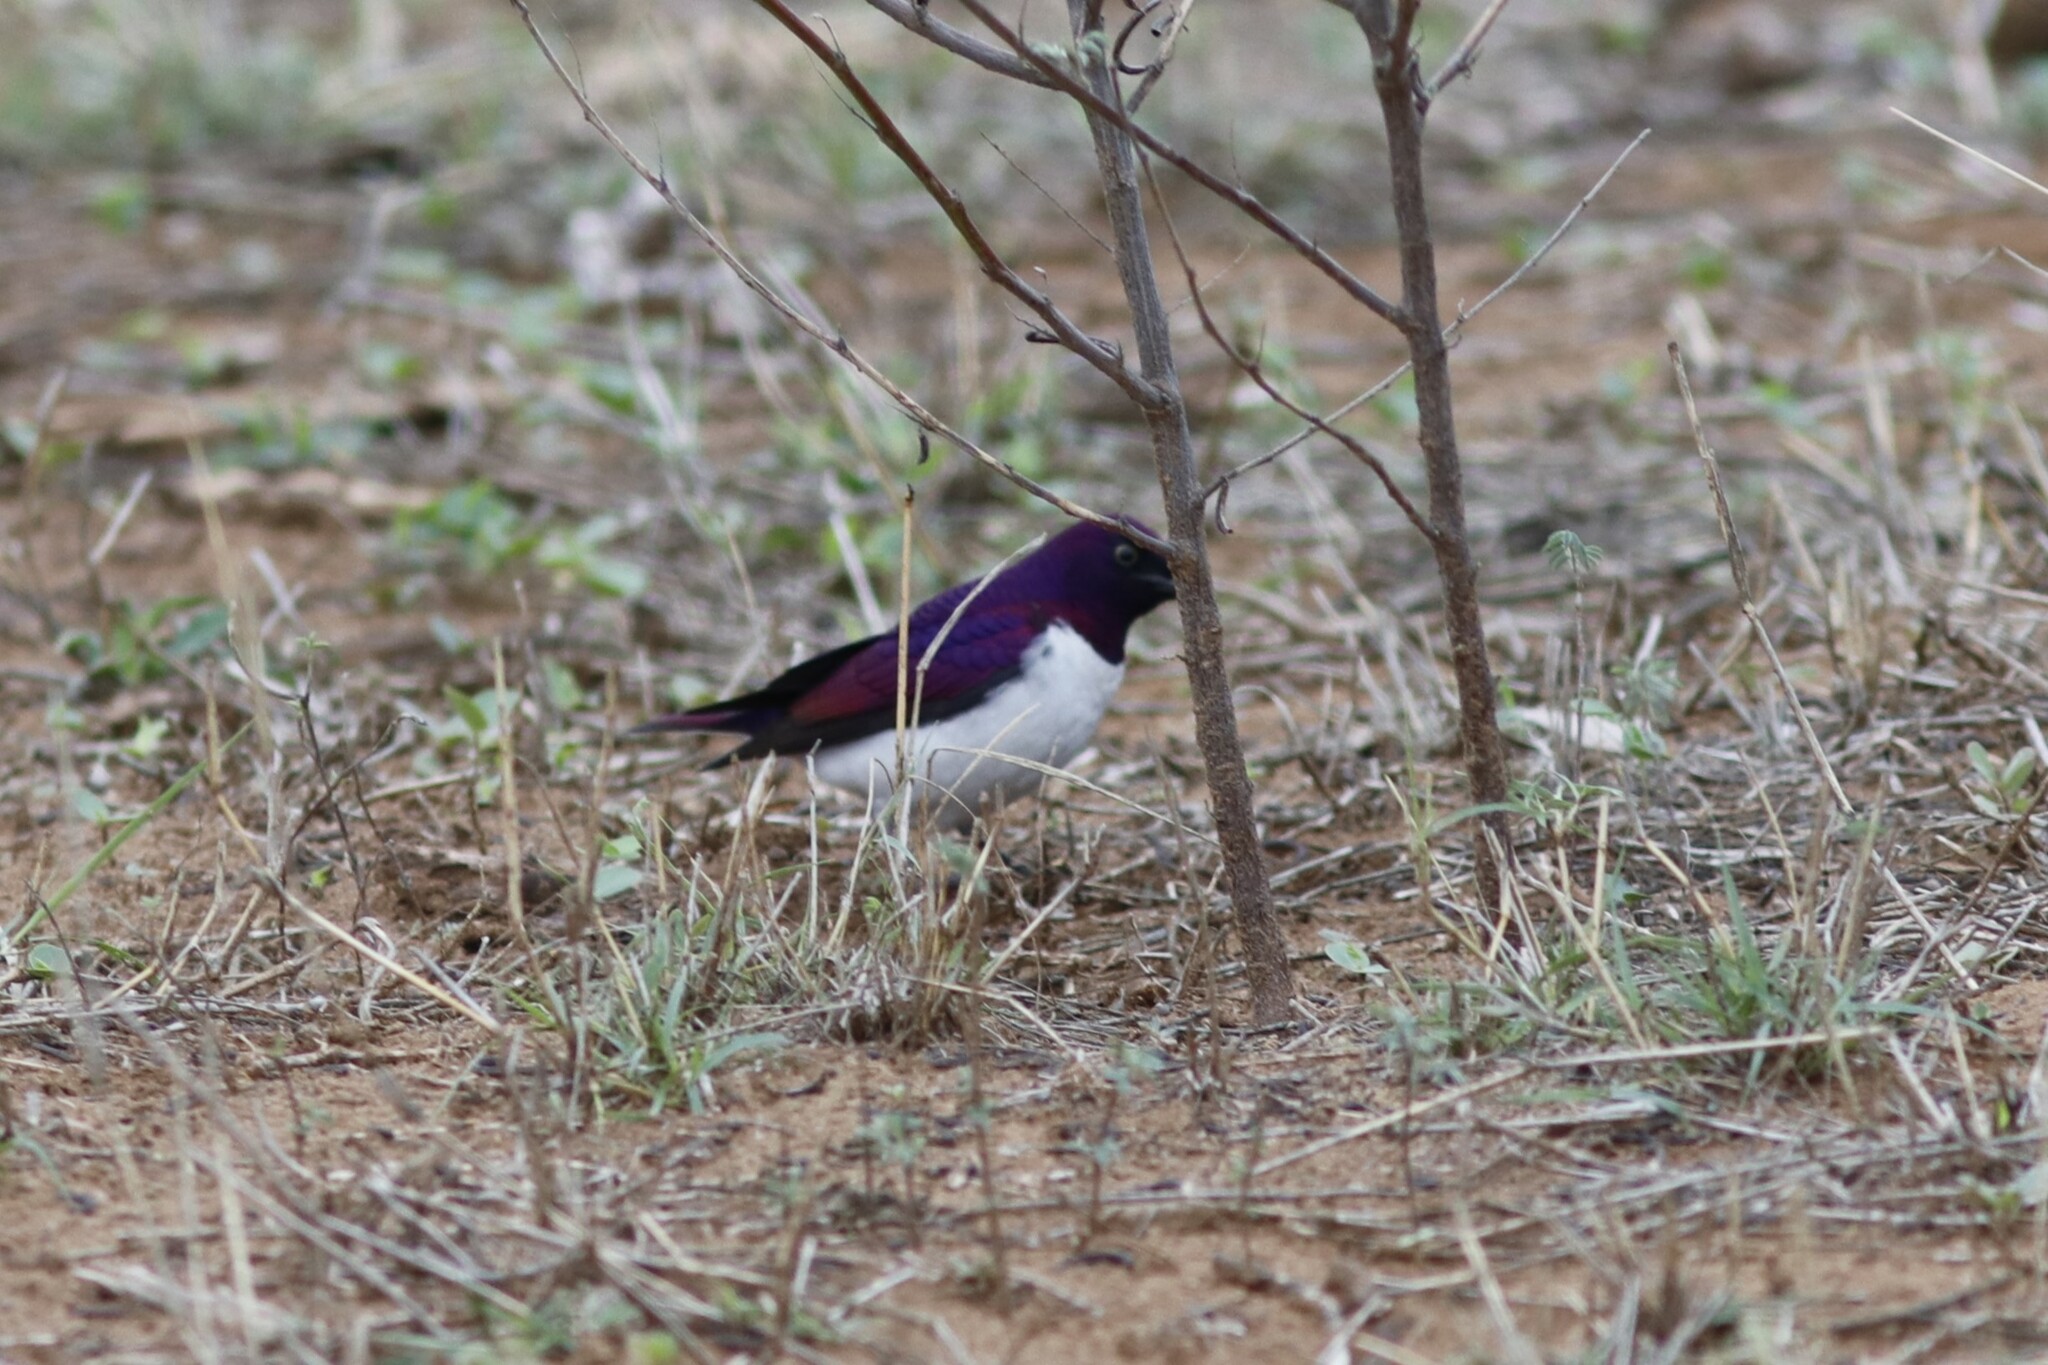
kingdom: Animalia
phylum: Chordata
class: Aves
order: Passeriformes
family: Sturnidae
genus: Cinnyricinclus
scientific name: Cinnyricinclus leucogaster
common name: Violet-backed starling
